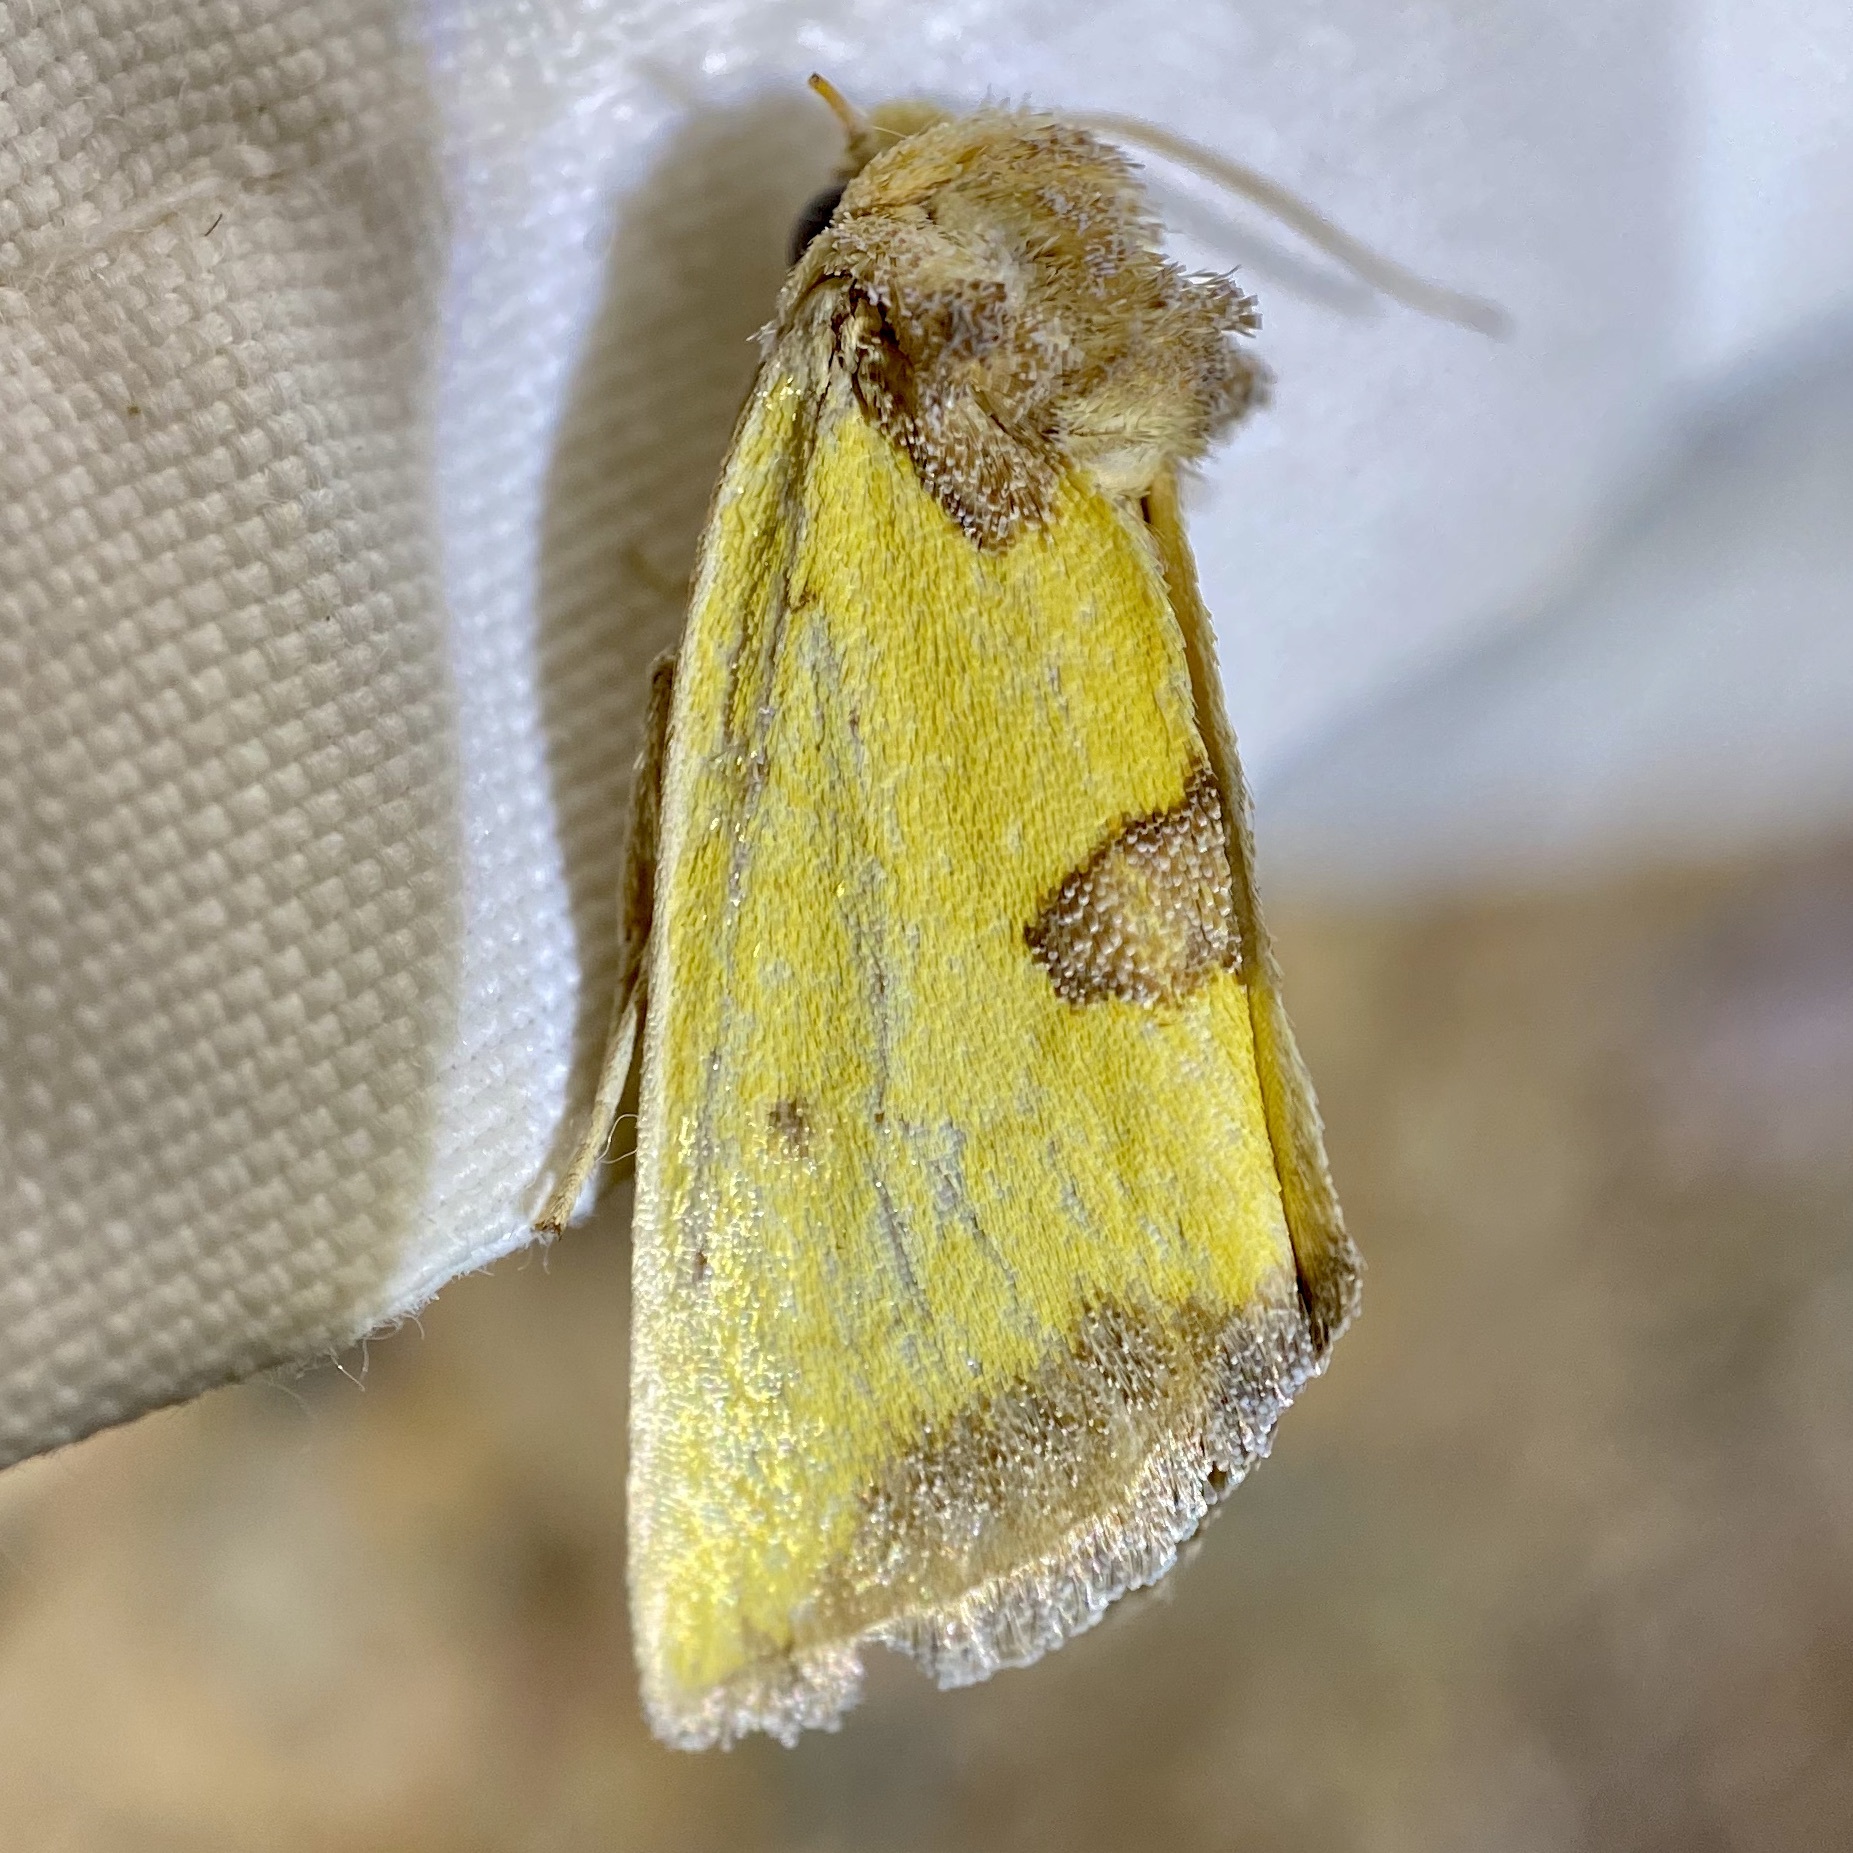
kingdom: Animalia
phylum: Arthropoda
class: Insecta
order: Lepidoptera
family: Noctuidae
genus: Stiria
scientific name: Stiria sulphurea
